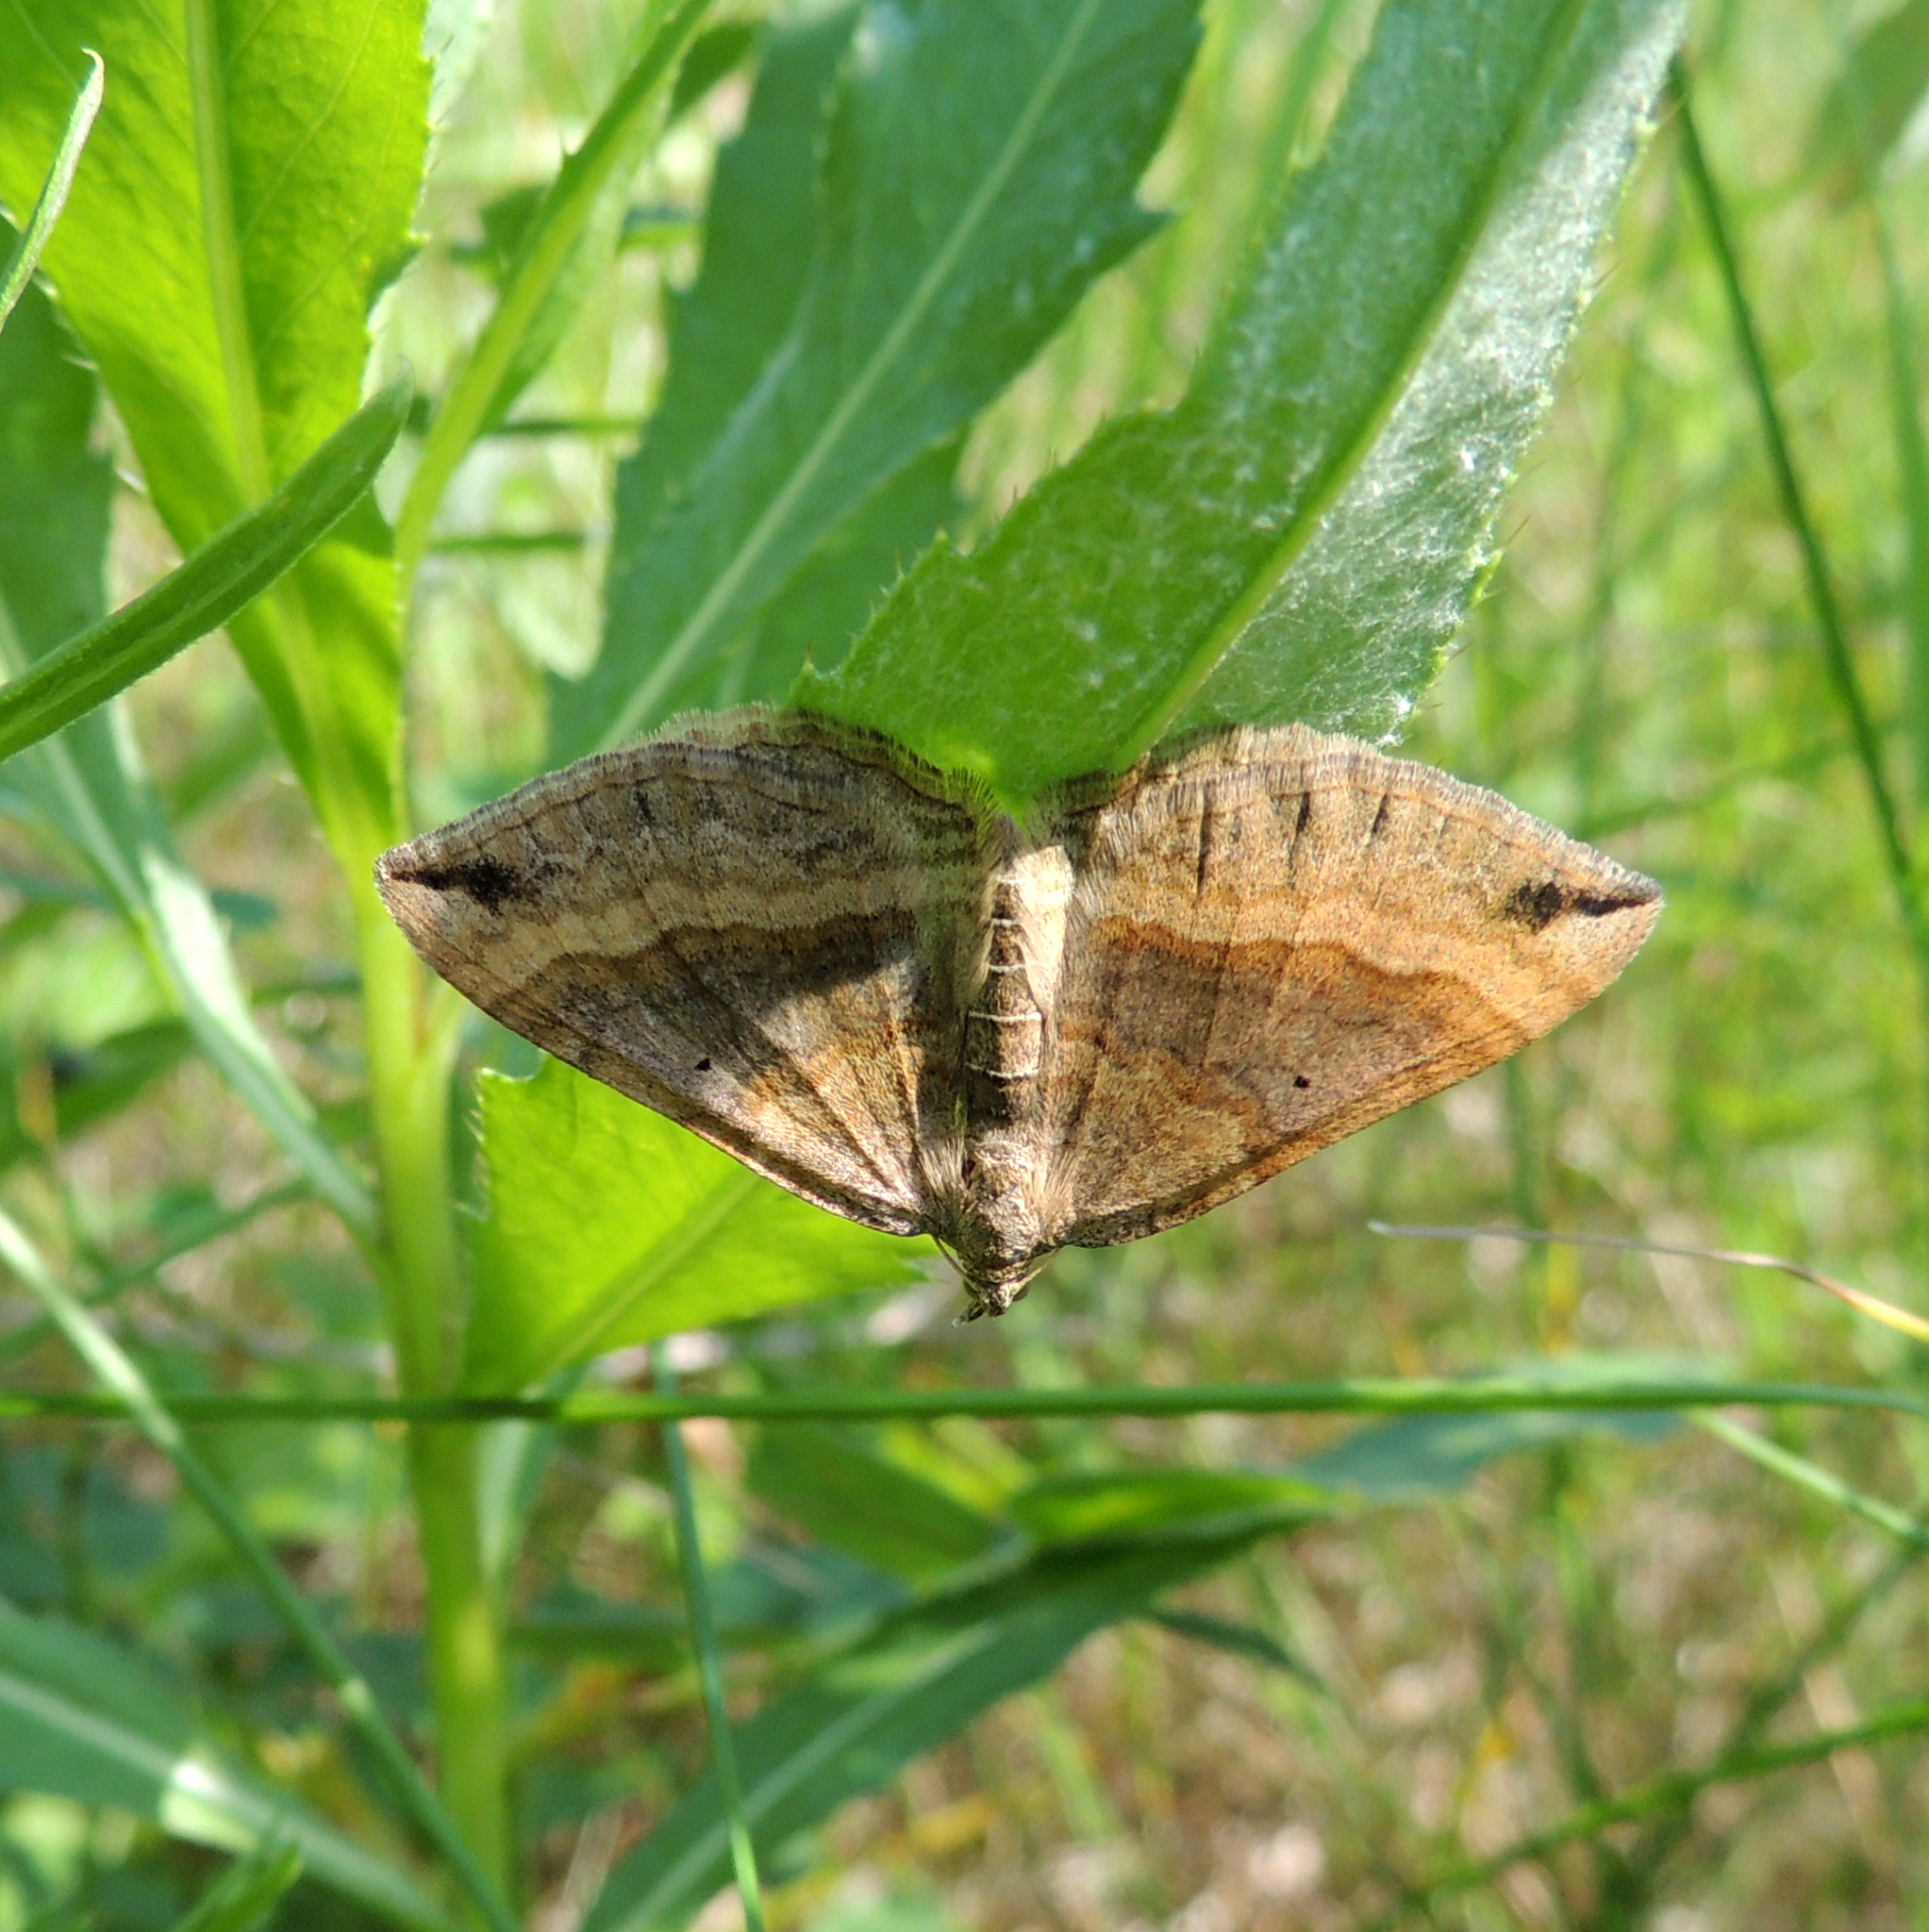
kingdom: Animalia
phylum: Arthropoda
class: Insecta
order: Lepidoptera
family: Geometridae
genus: Scotopteryx
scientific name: Scotopteryx chenopodiata
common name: Shaded broad-bar
